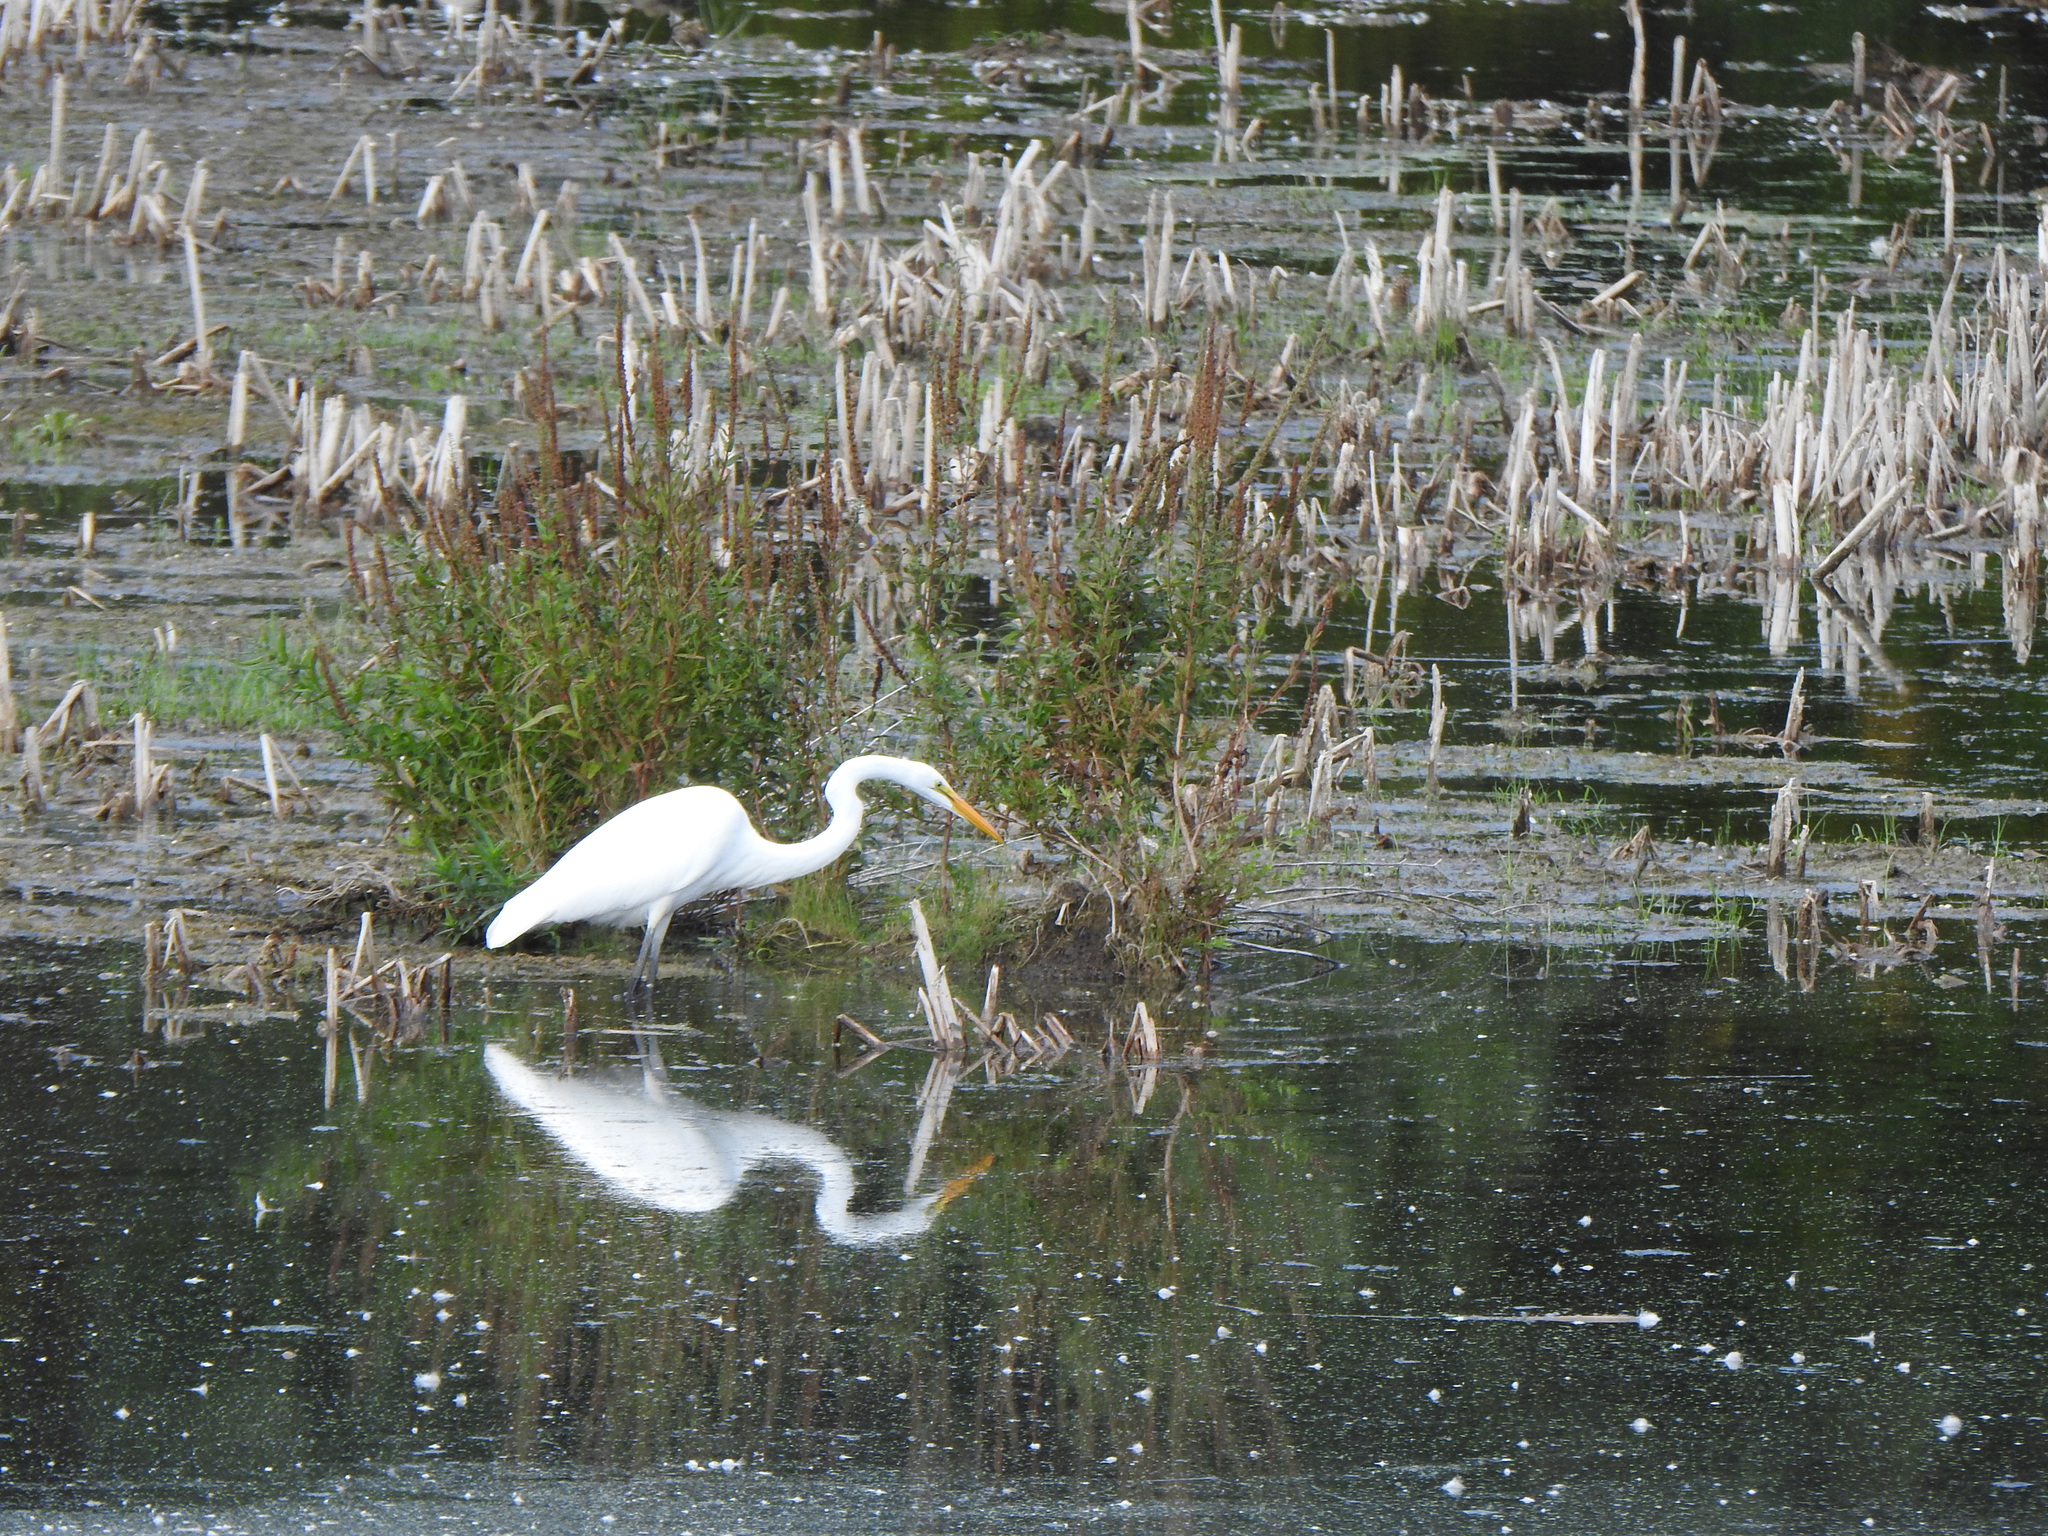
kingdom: Animalia
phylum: Chordata
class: Aves
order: Pelecaniformes
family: Ardeidae
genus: Ardea
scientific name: Ardea alba
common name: Great egret
